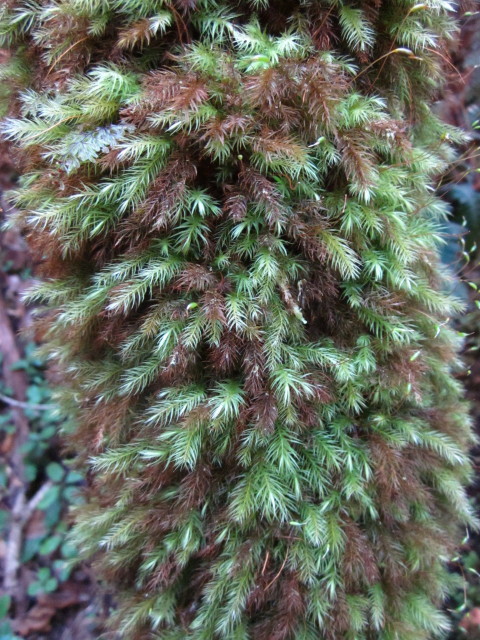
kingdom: Plantae
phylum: Bryophyta
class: Bryopsida
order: Rhizogoniales
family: Calomniaceae
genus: Pyrrhobryum
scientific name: Pyrrhobryum spiniforme
